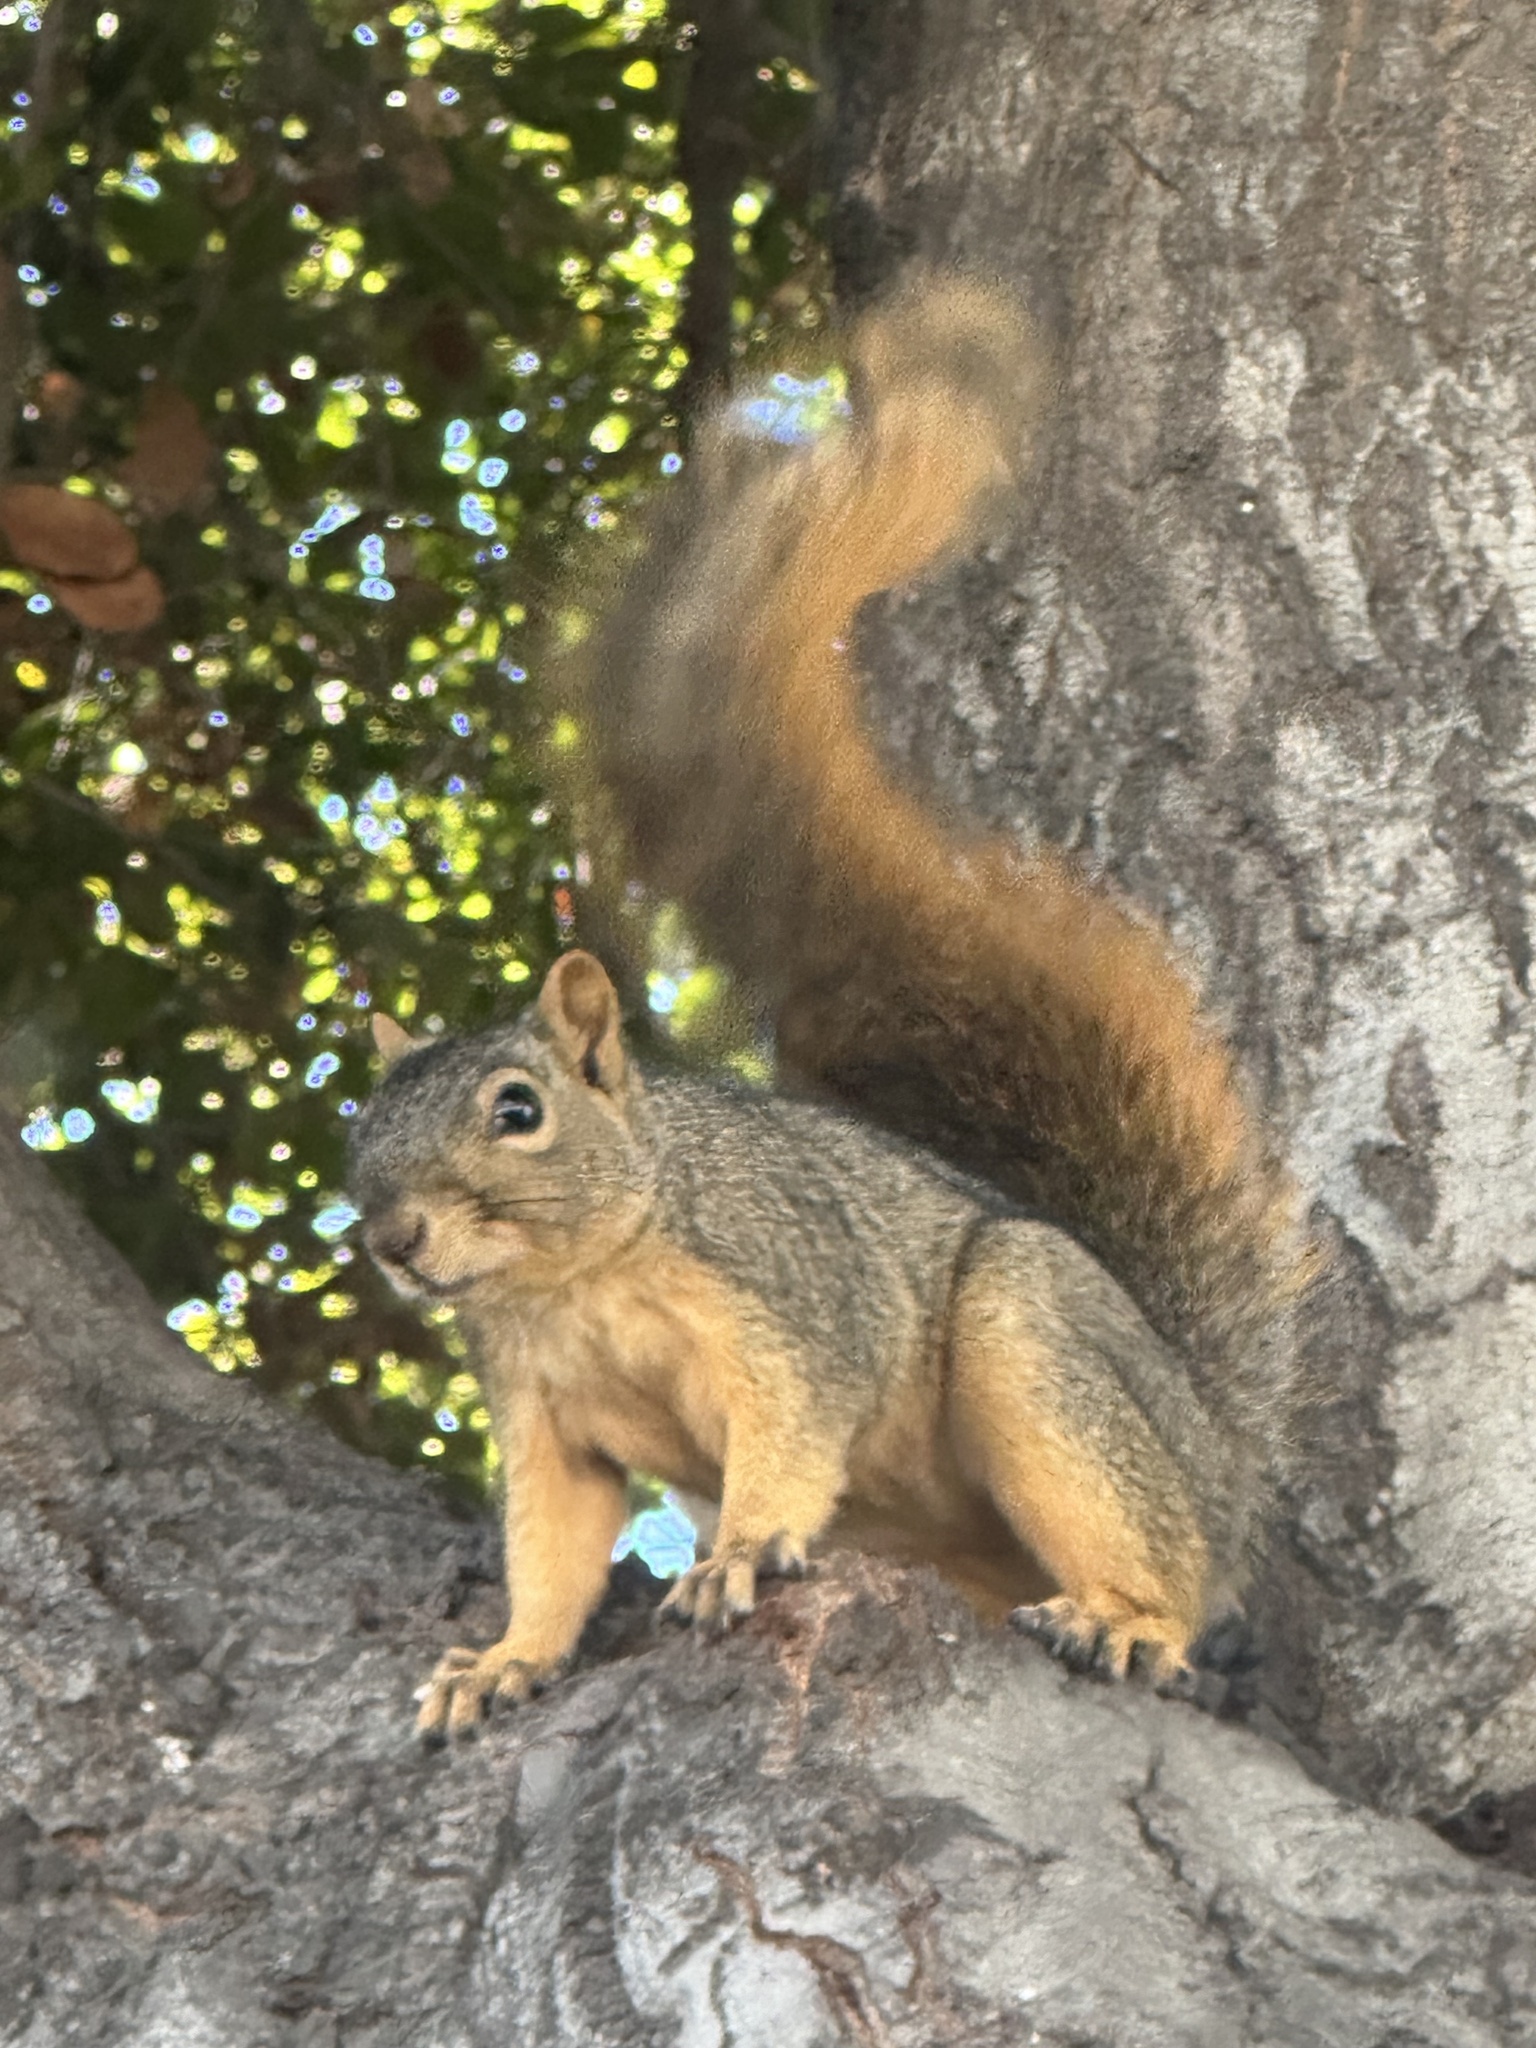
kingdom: Animalia
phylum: Chordata
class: Mammalia
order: Rodentia
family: Sciuridae
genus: Sciurus
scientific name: Sciurus niger
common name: Fox squirrel
